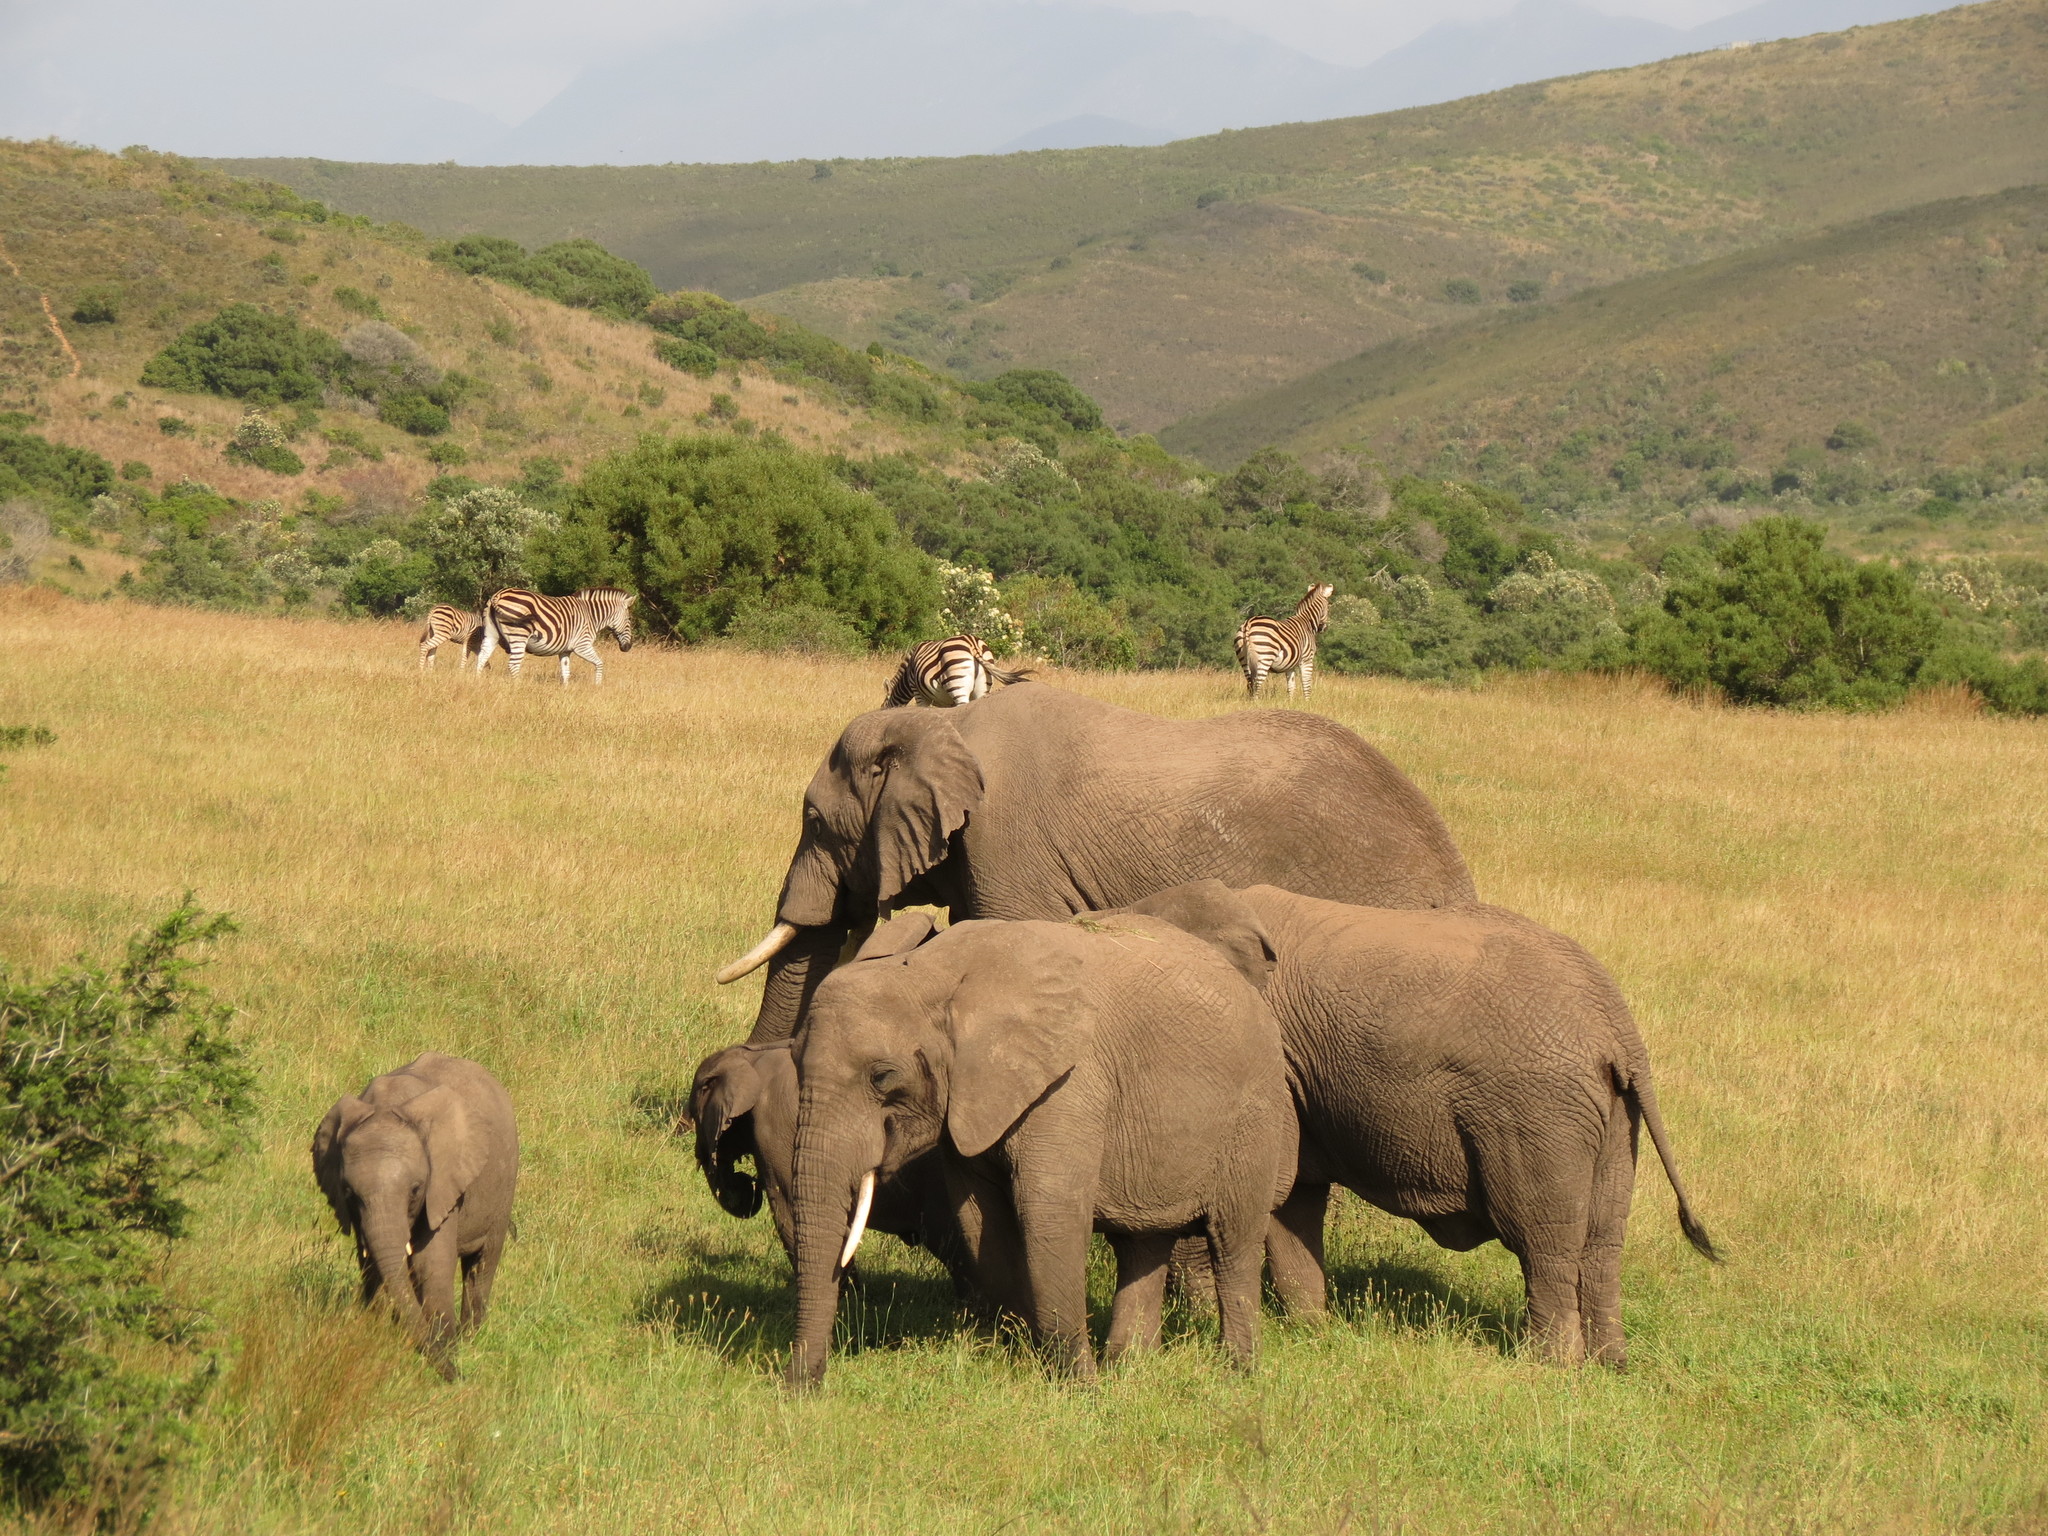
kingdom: Animalia
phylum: Chordata
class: Mammalia
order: Proboscidea
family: Elephantidae
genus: Loxodonta
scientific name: Loxodonta africana
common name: African elephant
